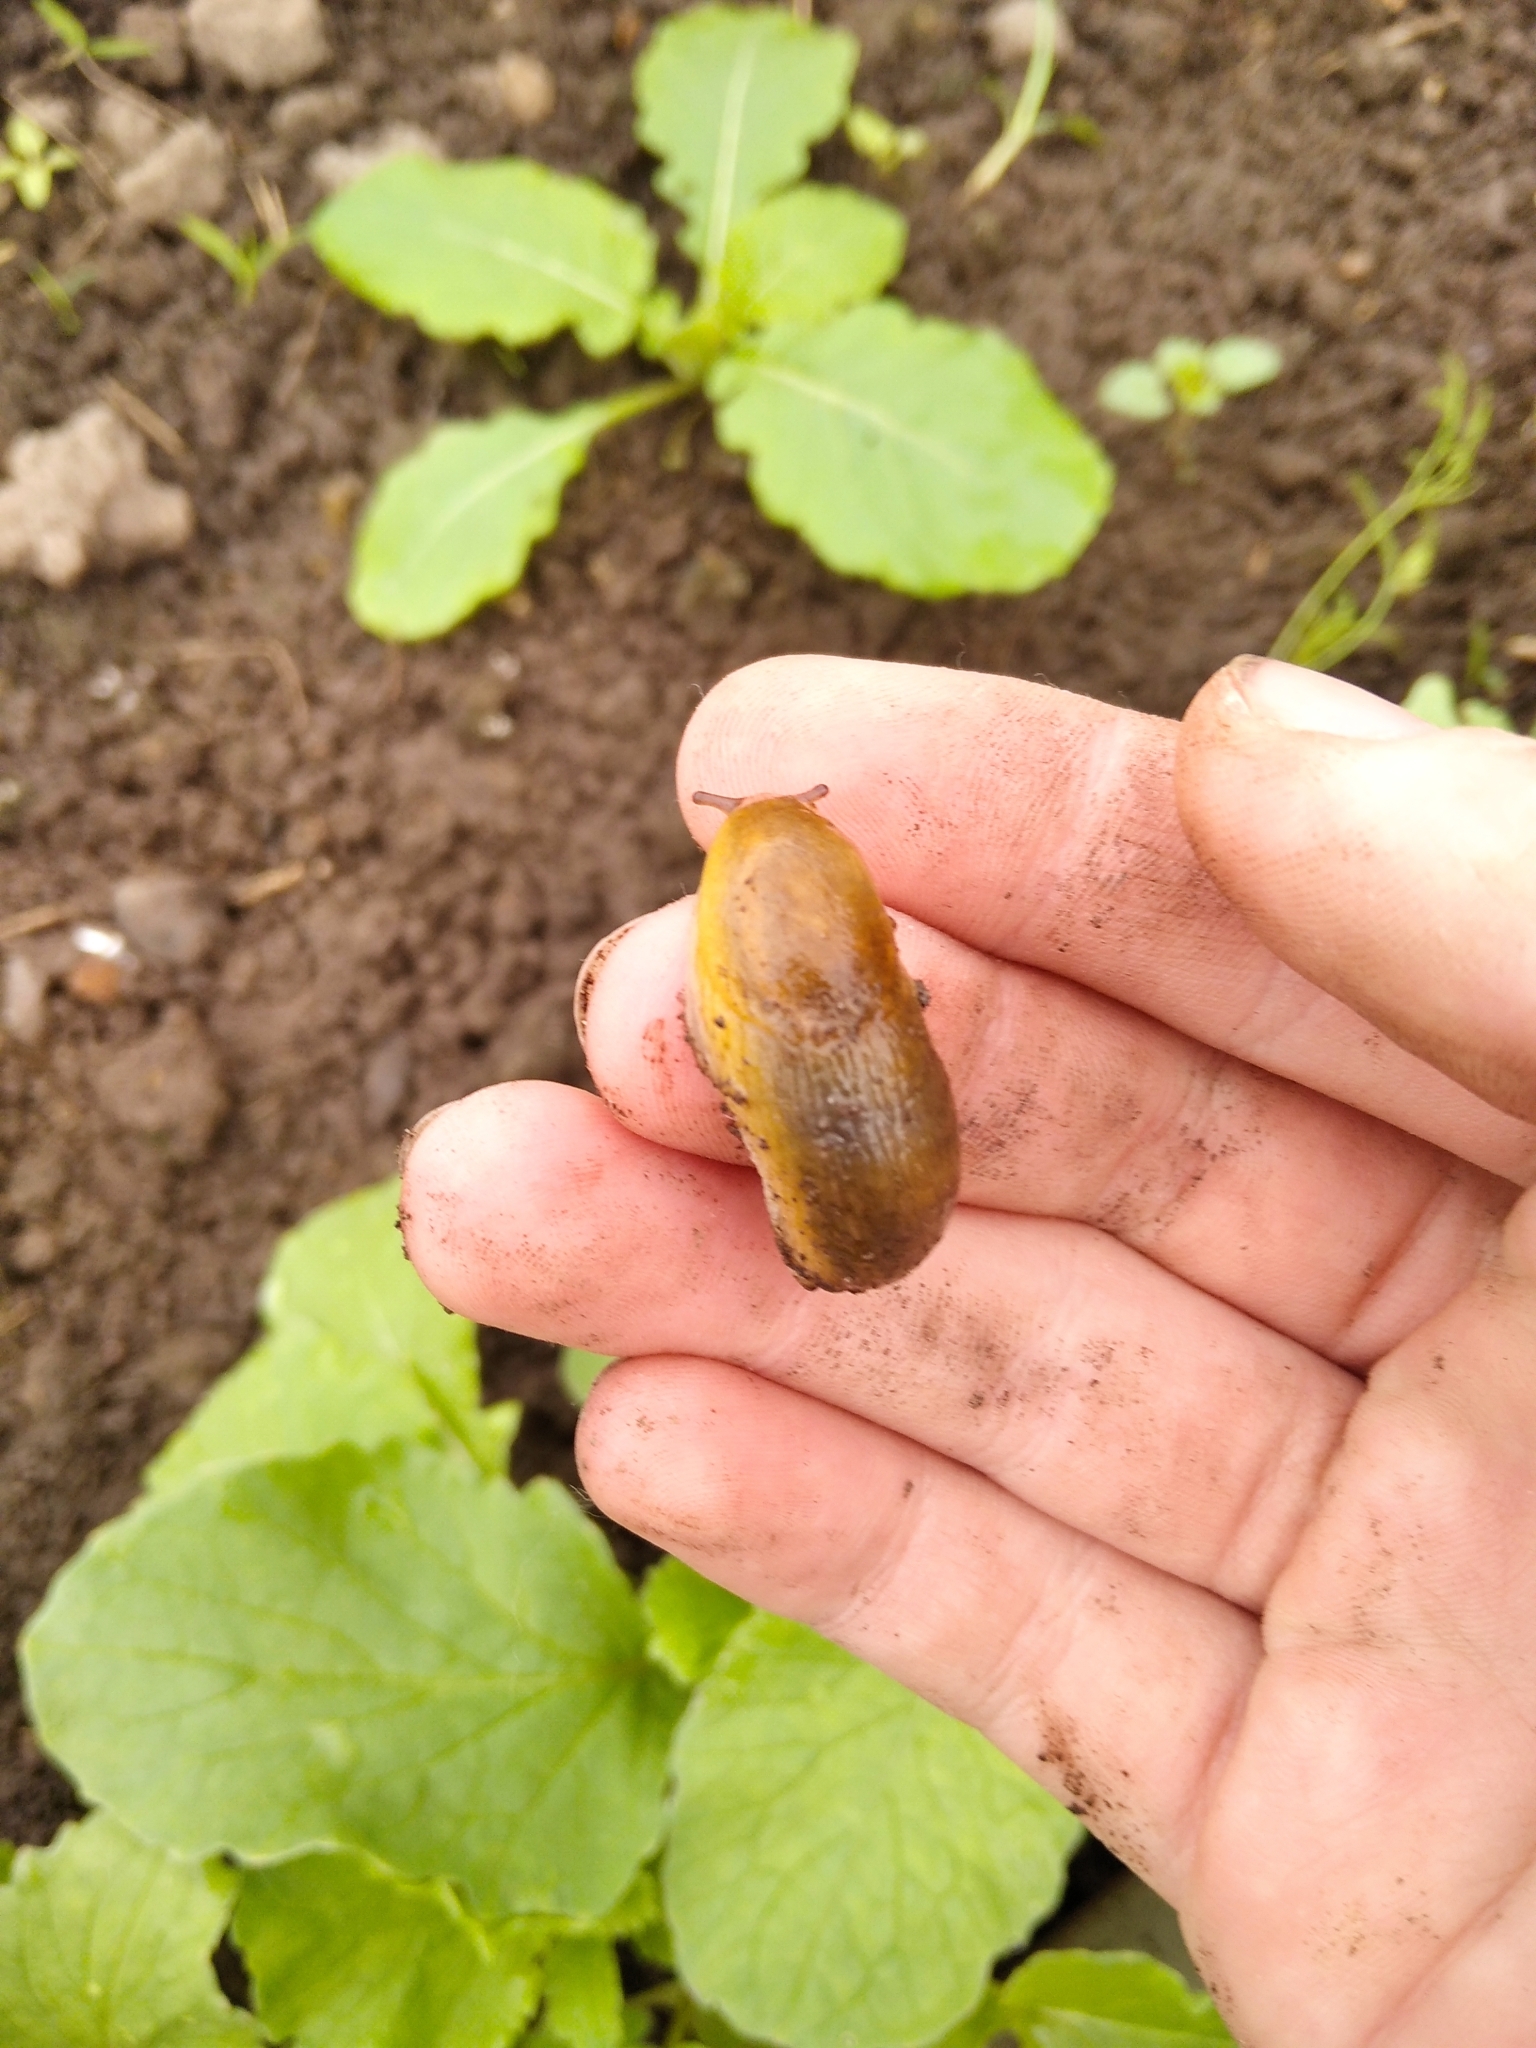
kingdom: Animalia
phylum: Mollusca
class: Gastropoda
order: Stylommatophora
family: Arionidae
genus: Arion
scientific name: Arion fuscus
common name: Northern dusky slug
